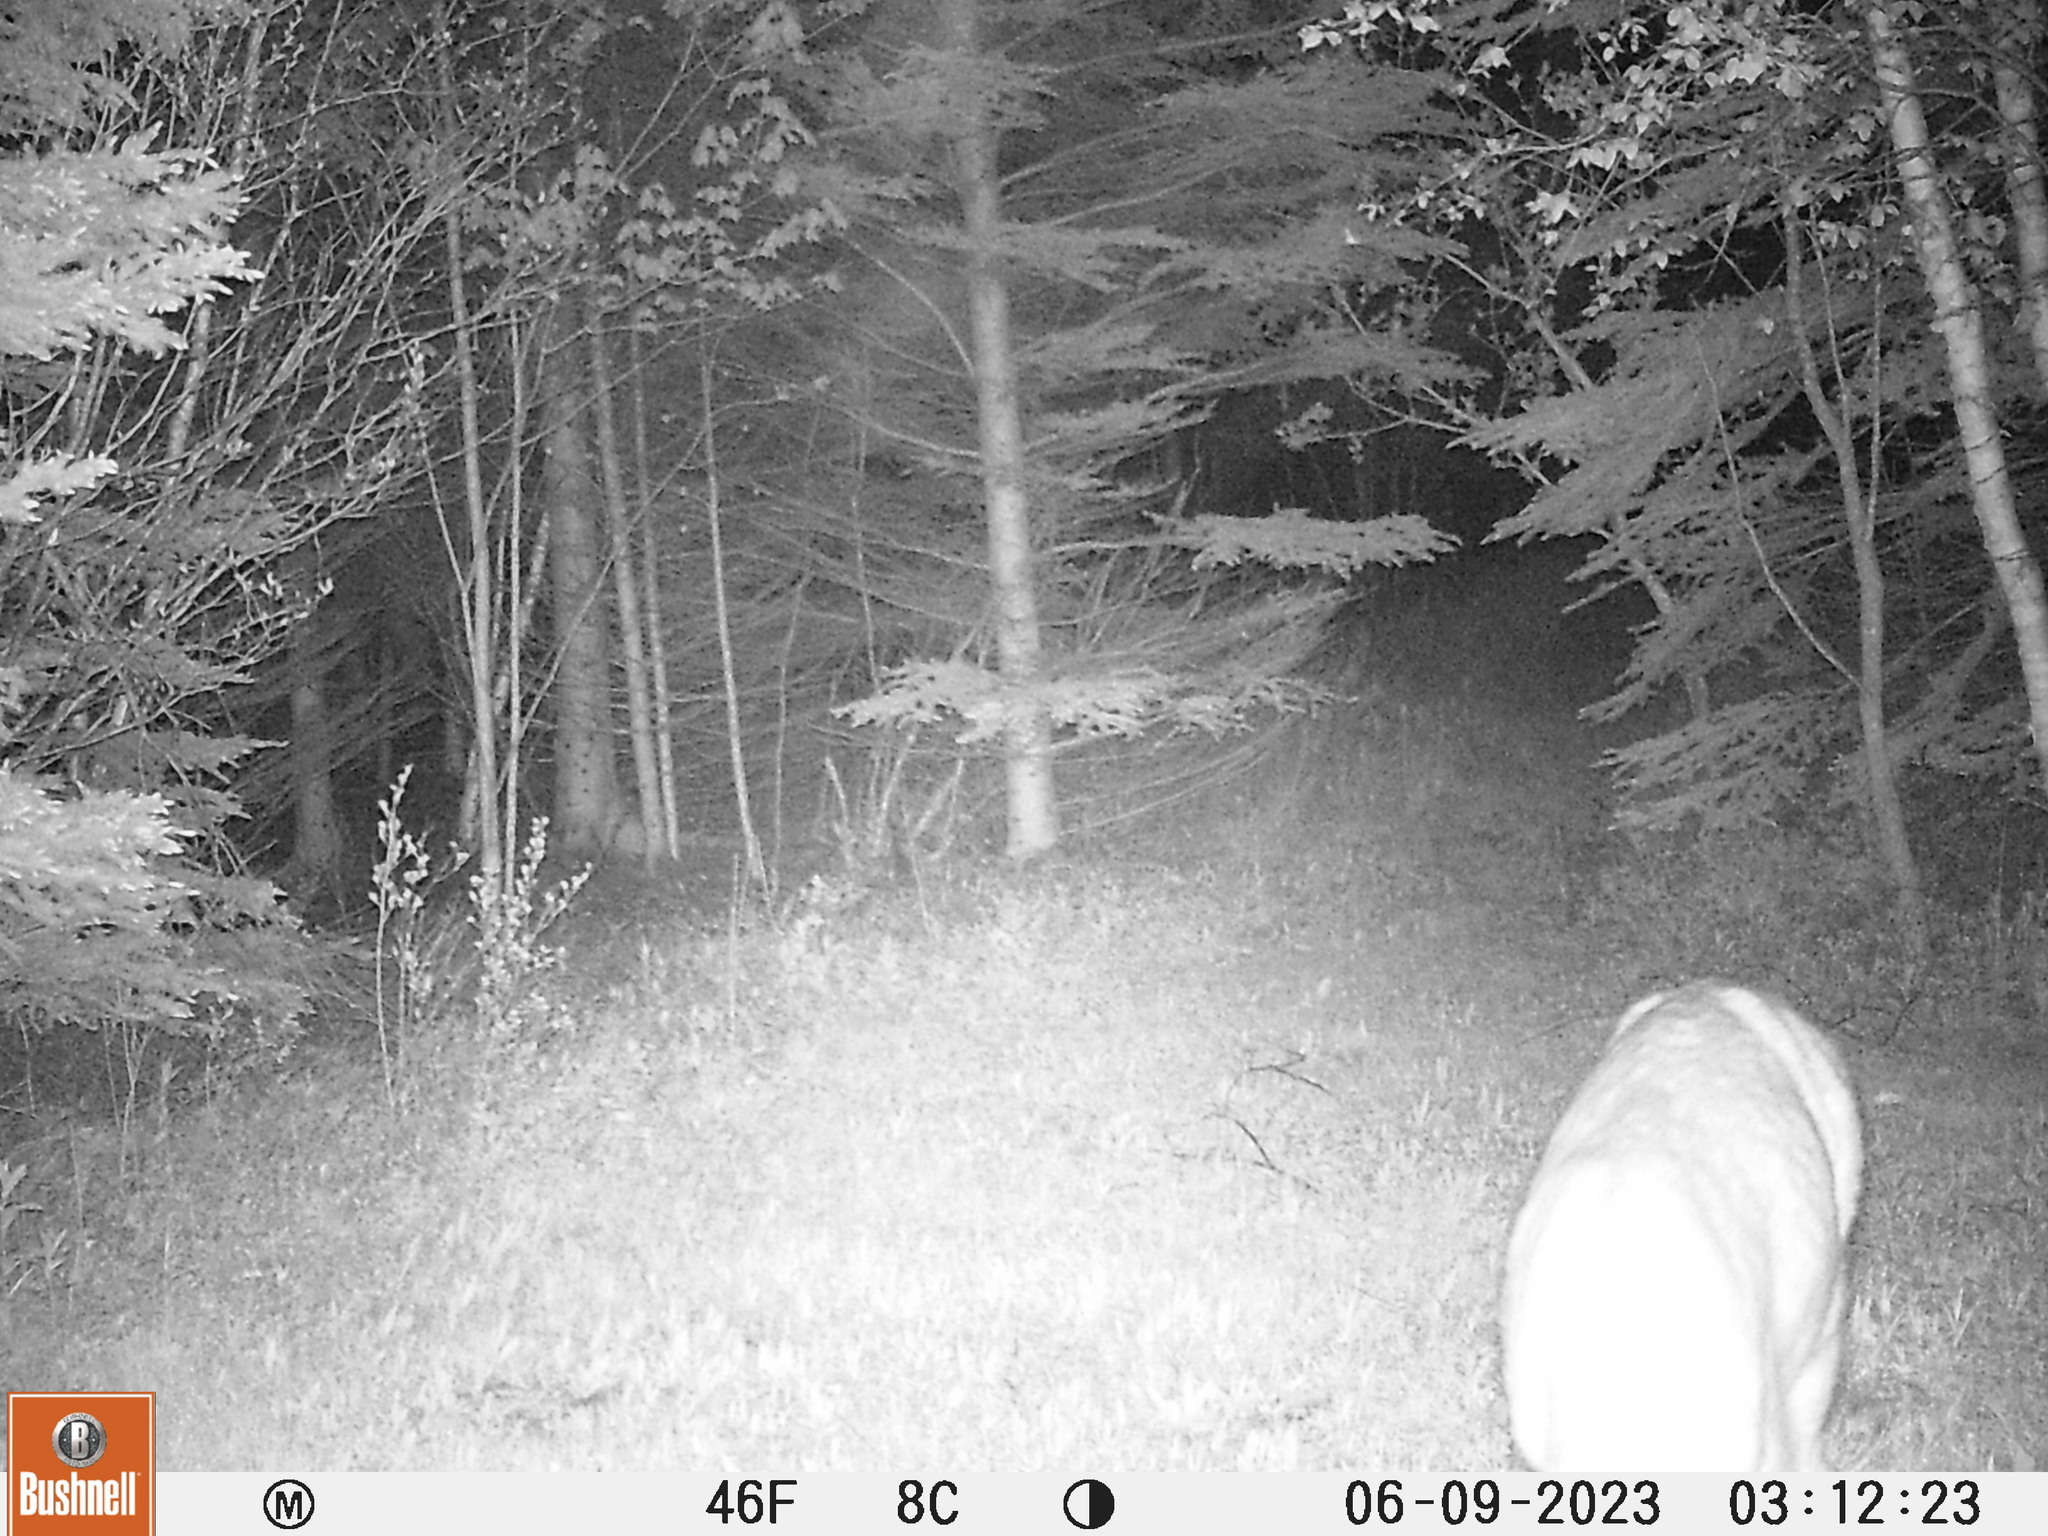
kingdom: Animalia
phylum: Chordata
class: Mammalia
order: Artiodactyla
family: Cervidae
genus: Odocoileus
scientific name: Odocoileus virginianus
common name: White-tailed deer
